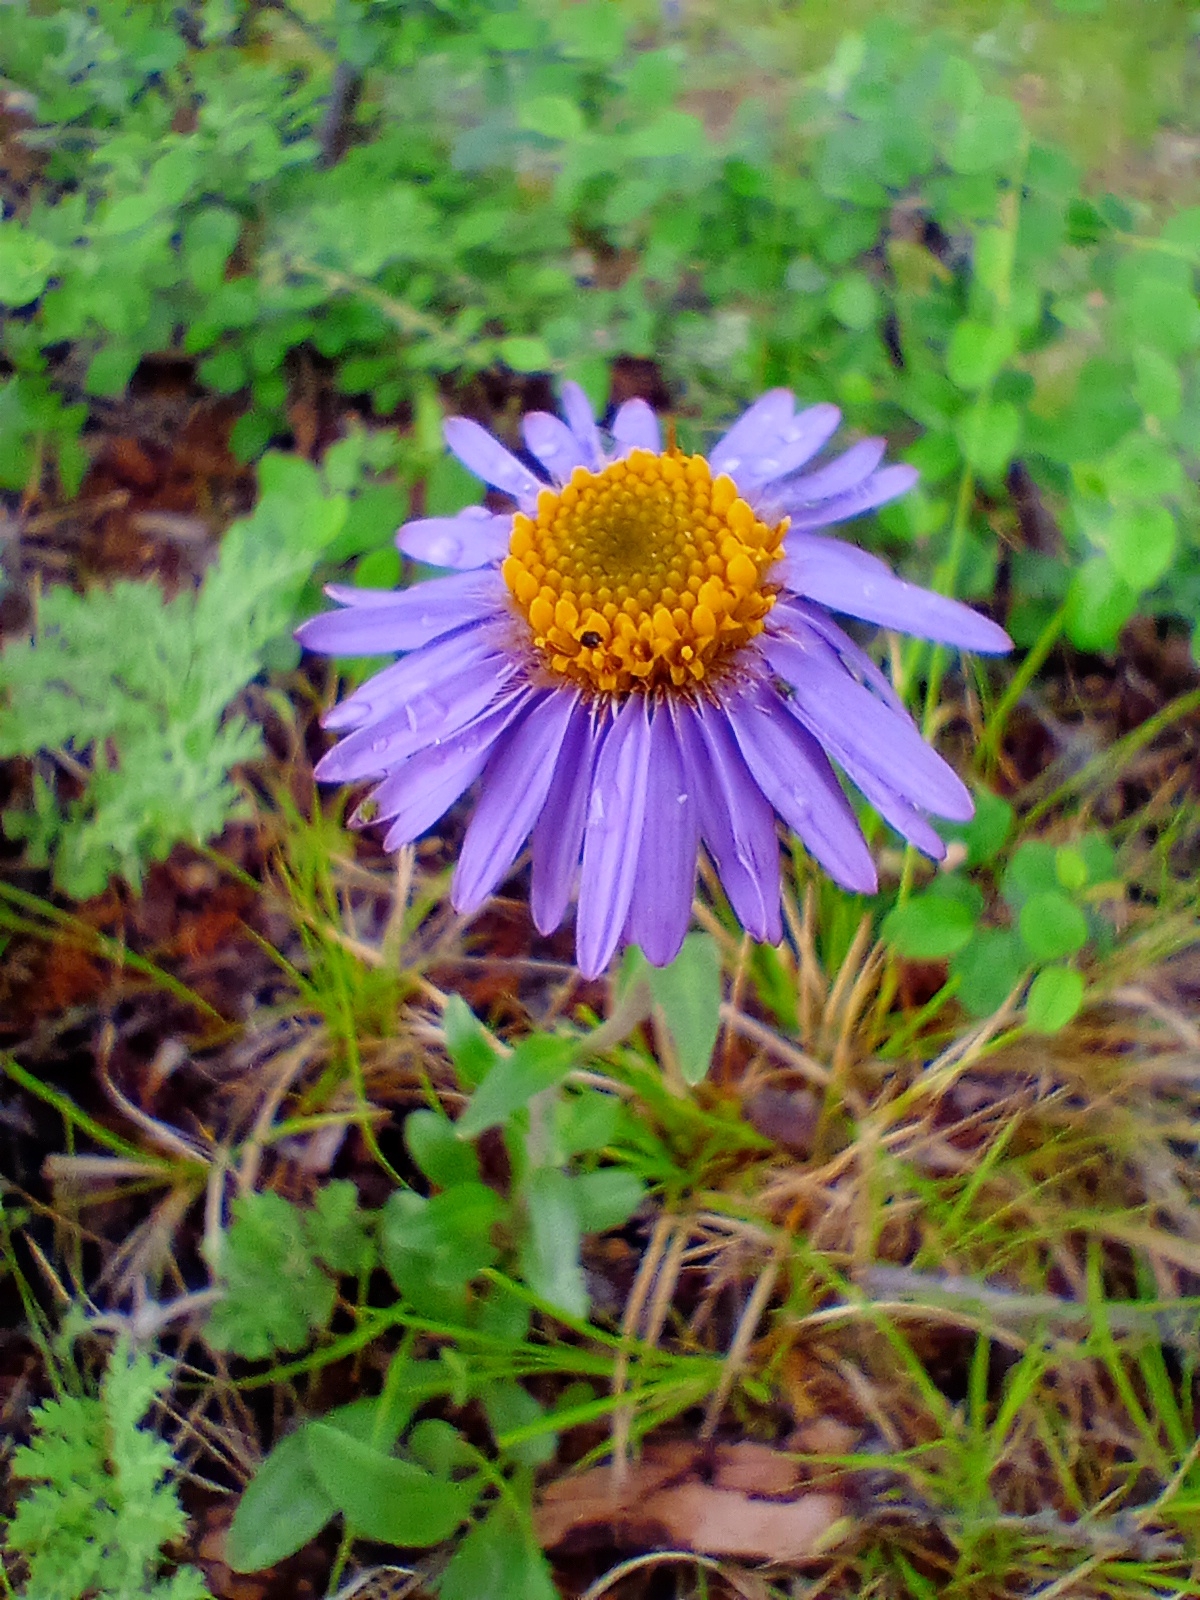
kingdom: Plantae
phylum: Tracheophyta
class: Magnoliopsida
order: Asterales
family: Asteraceae
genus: Aster
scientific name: Aster alpinus
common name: Alpine aster
